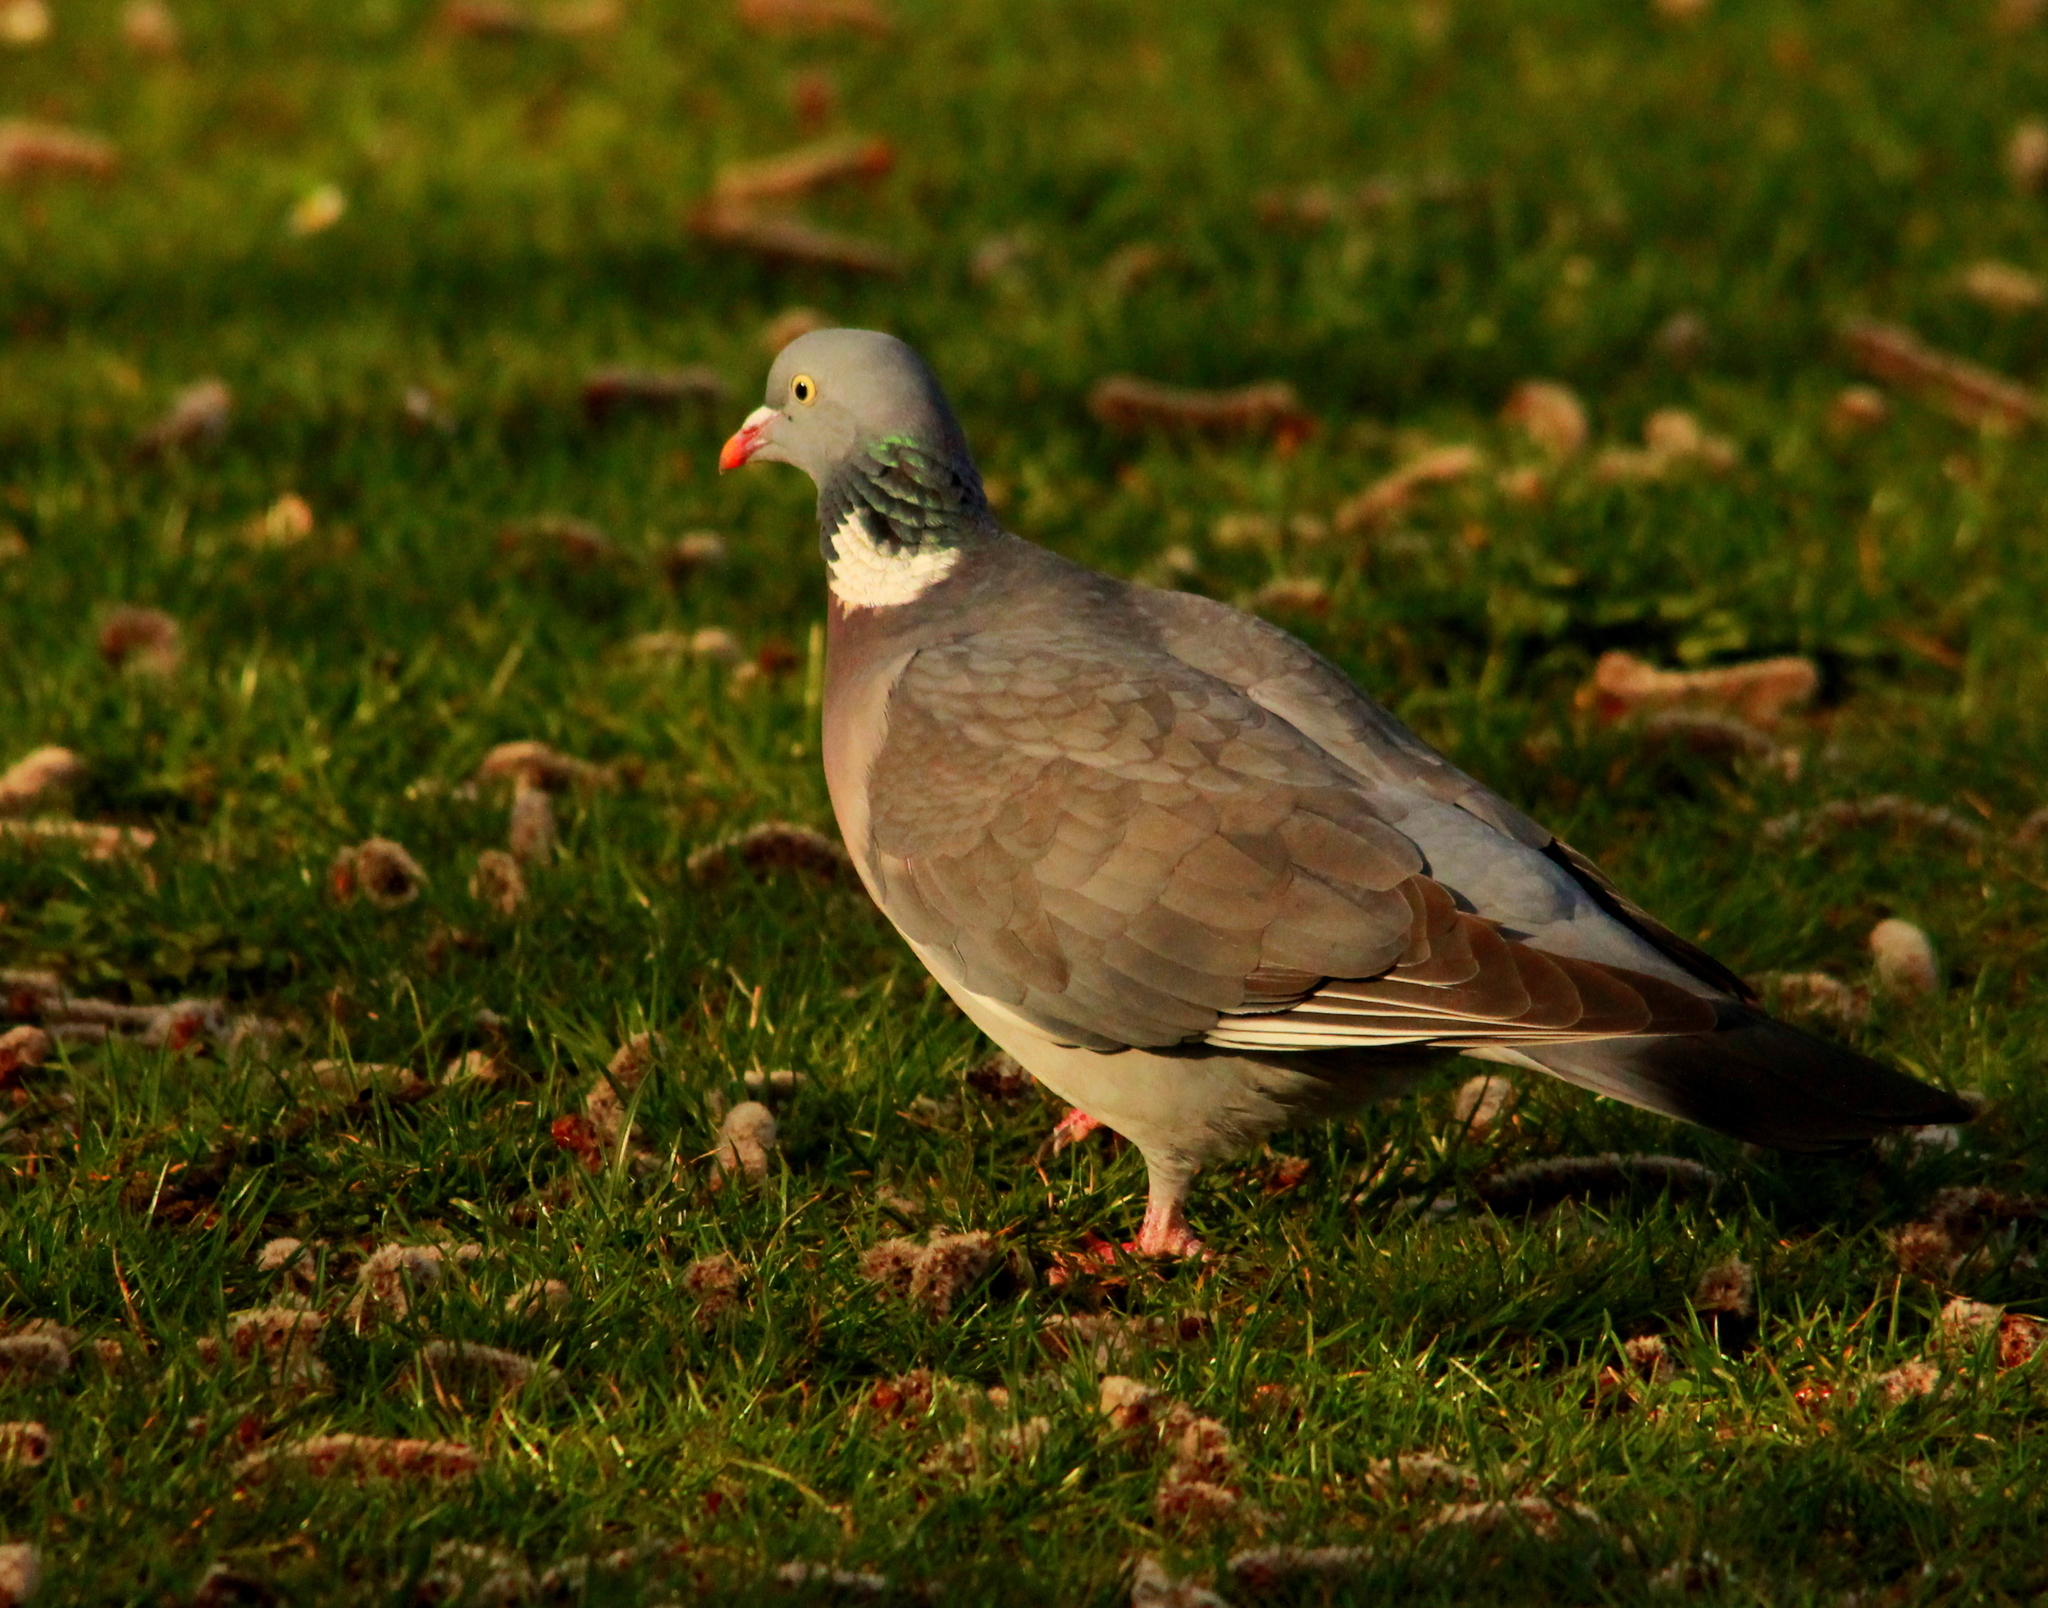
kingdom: Animalia
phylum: Chordata
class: Aves
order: Columbiformes
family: Columbidae
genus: Columba
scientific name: Columba palumbus
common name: Common wood pigeon
